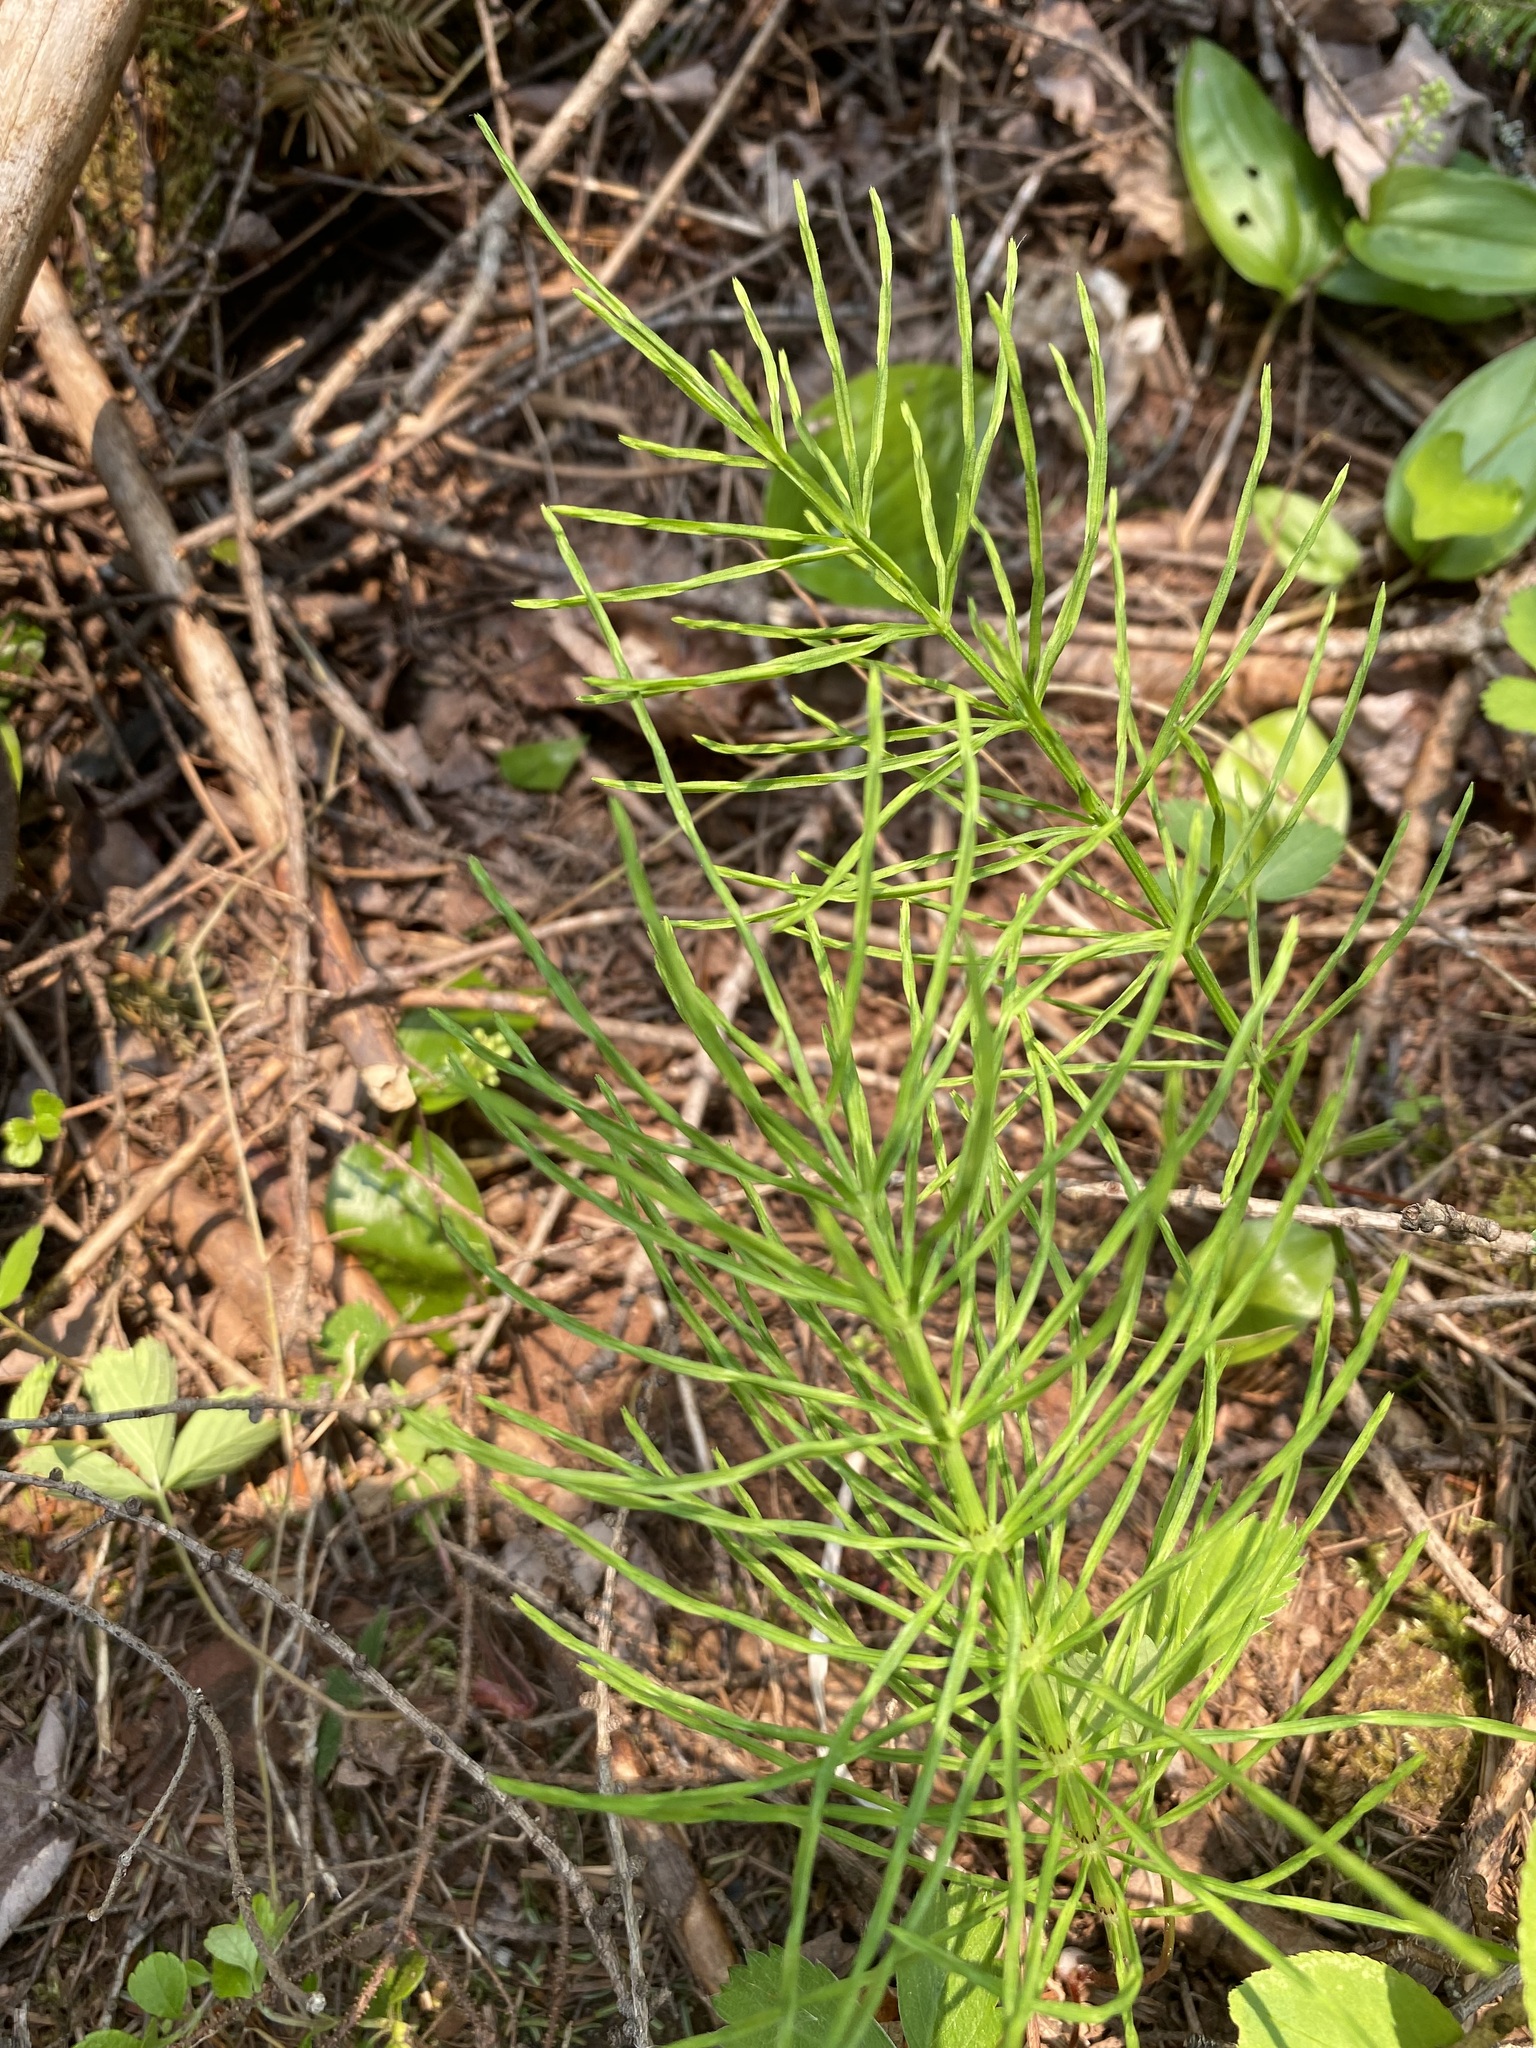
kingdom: Plantae
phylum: Tracheophyta
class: Polypodiopsida
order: Equisetales
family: Equisetaceae
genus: Equisetum
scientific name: Equisetum arvense
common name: Field horsetail
